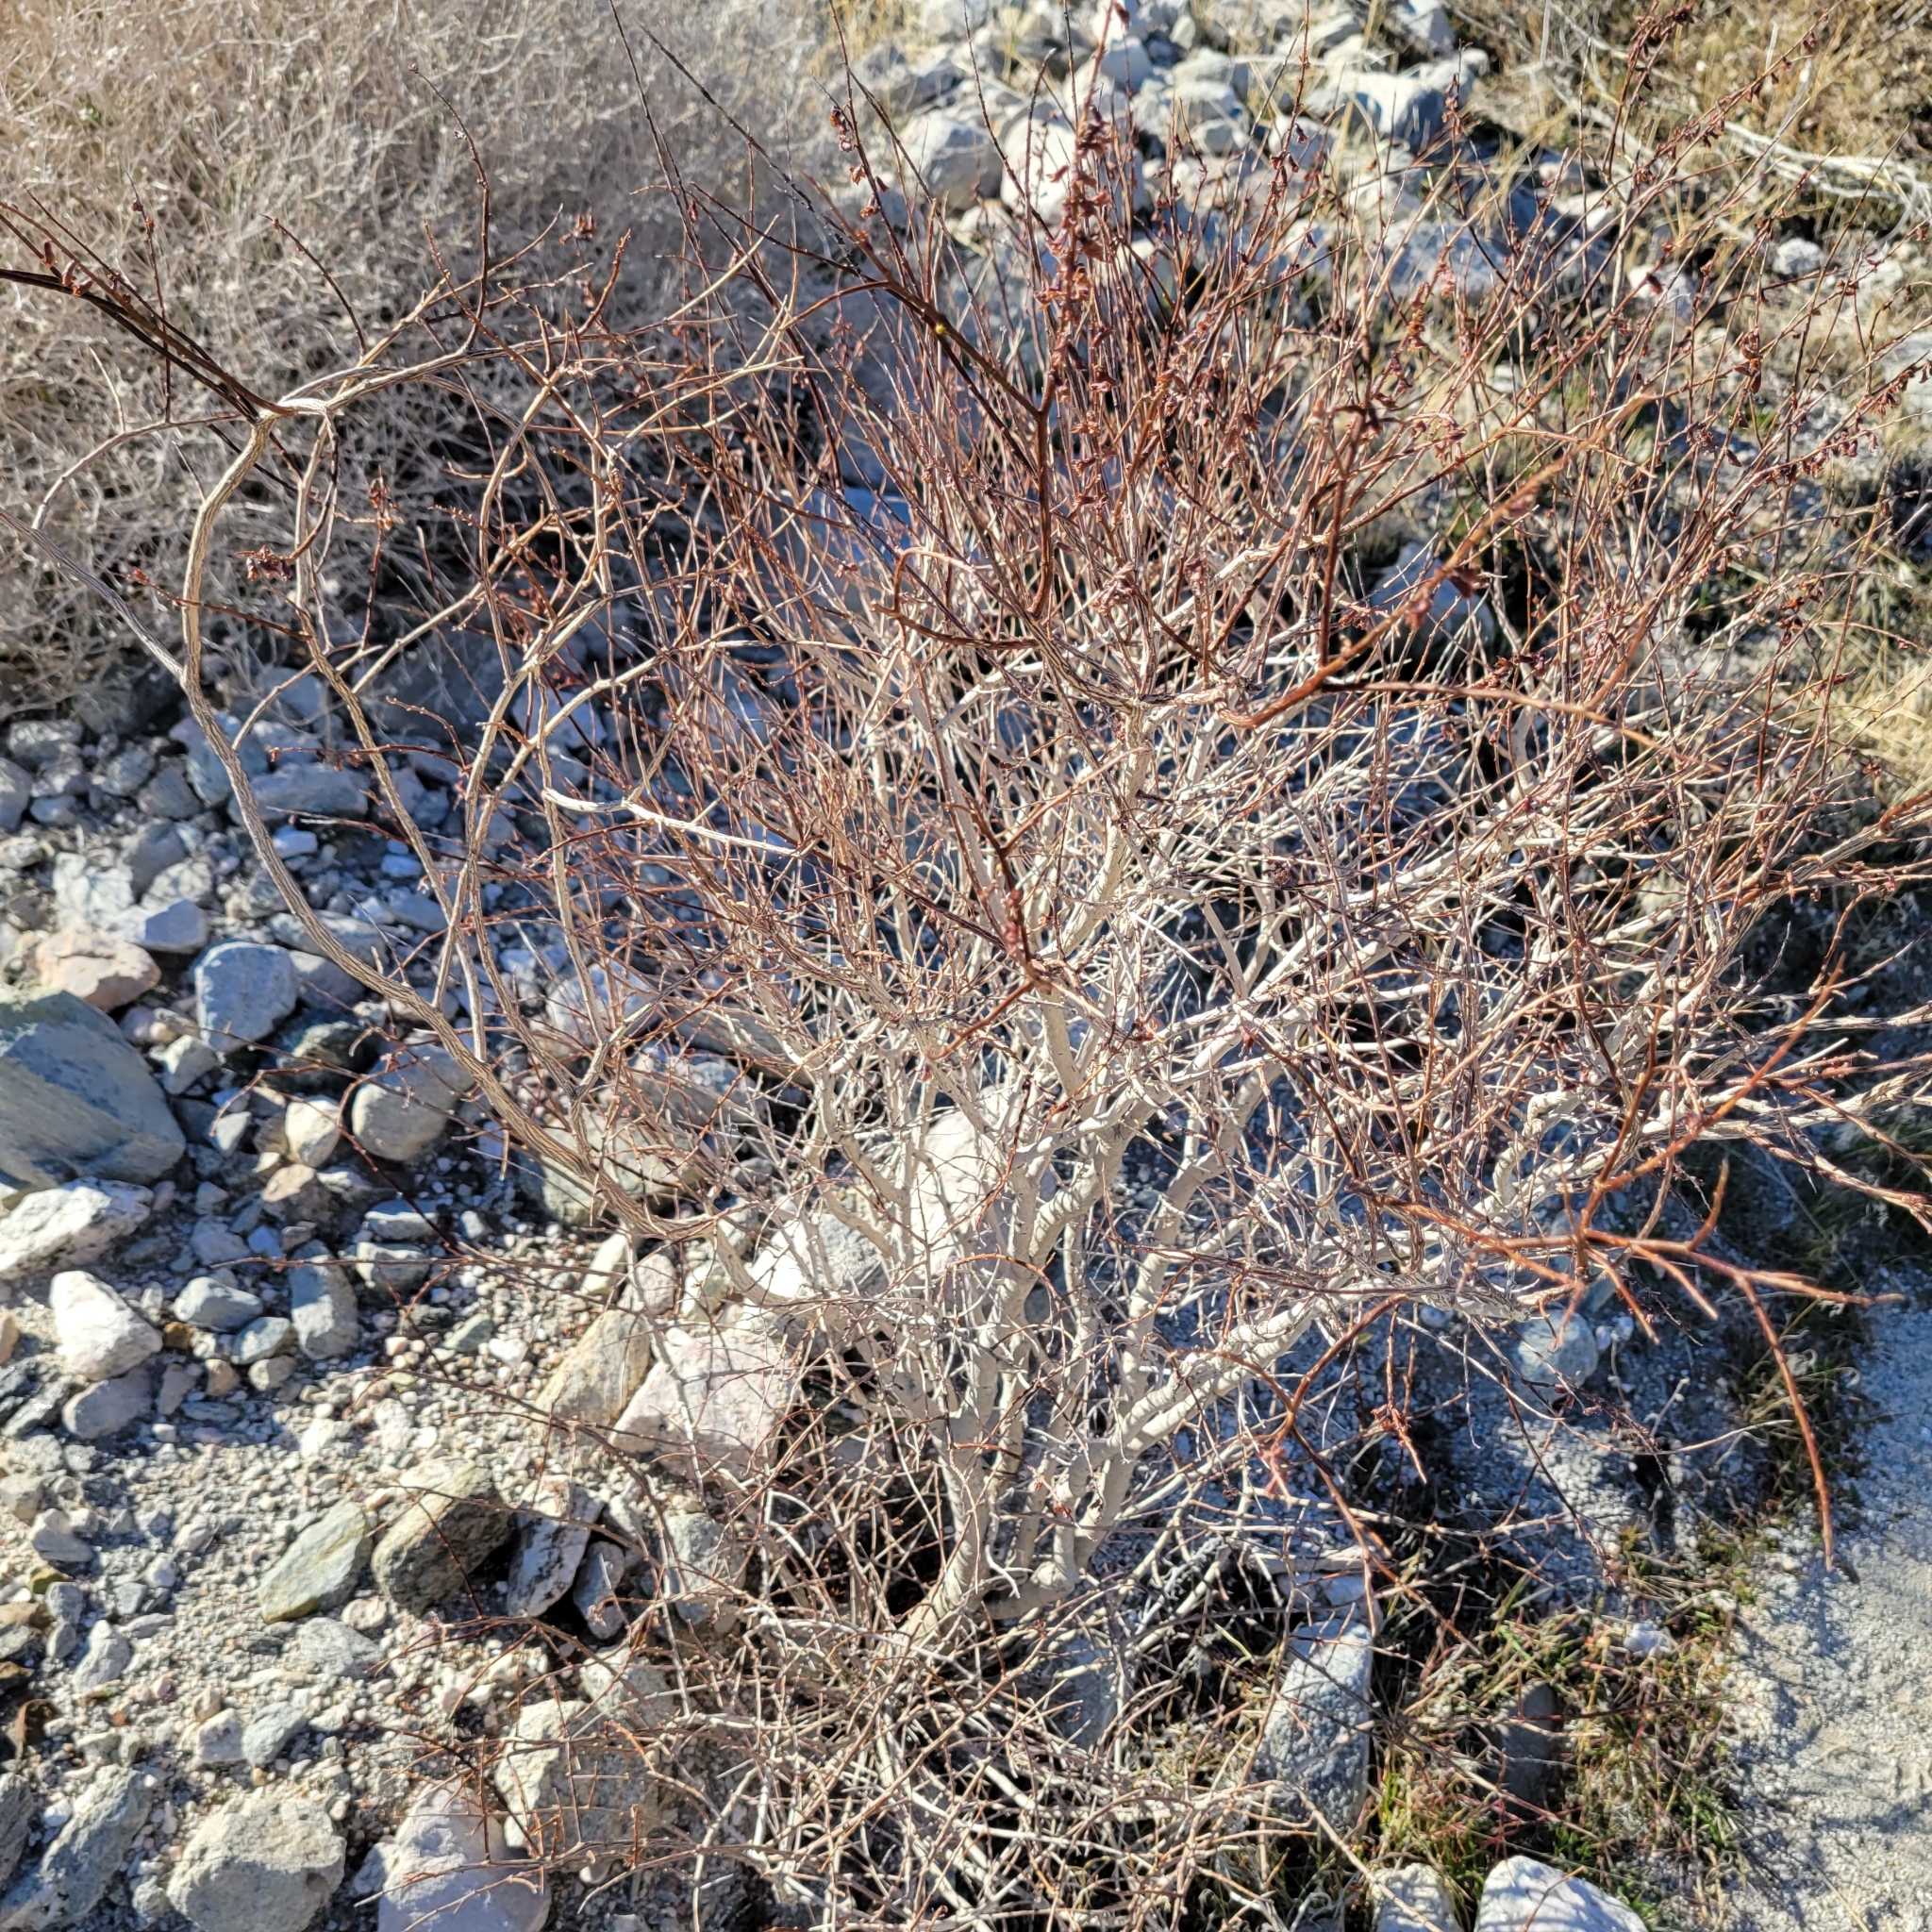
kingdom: Plantae
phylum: Tracheophyta
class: Magnoliopsida
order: Fabales
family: Fabaceae
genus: Psorothamnus
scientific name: Psorothamnus arborescens
